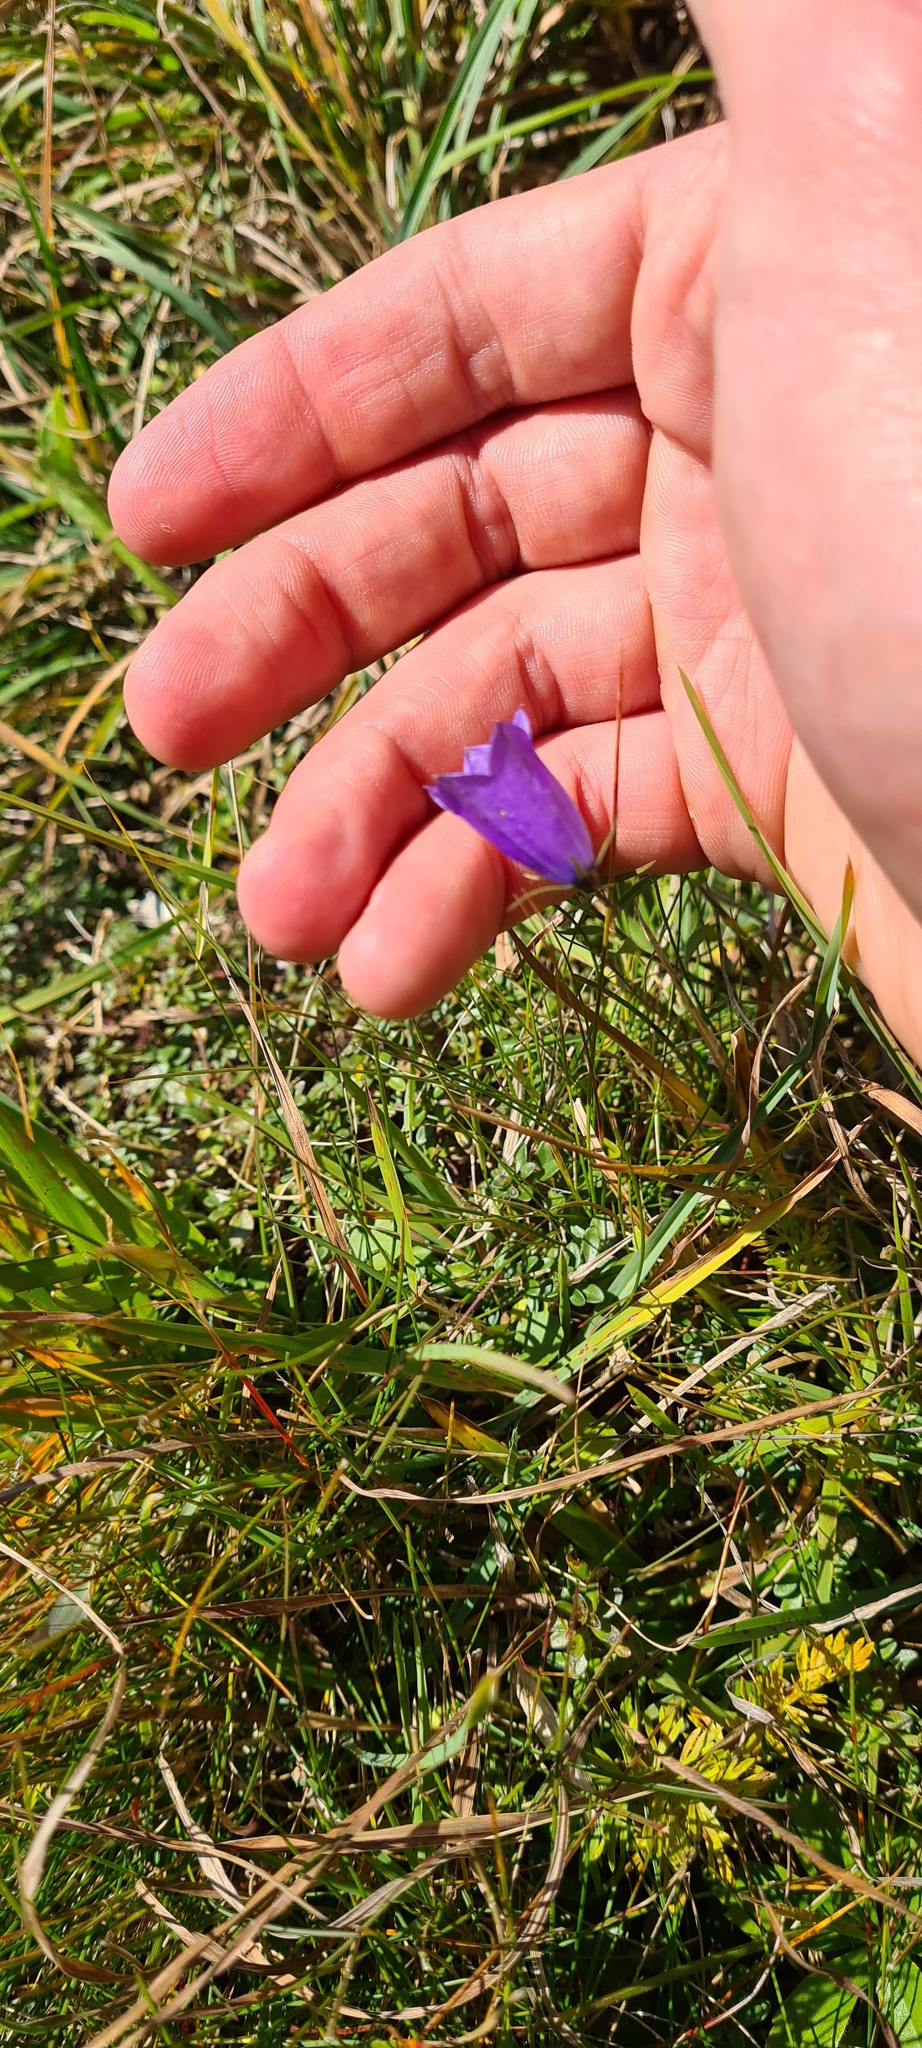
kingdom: Plantae
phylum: Tracheophyta
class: Magnoliopsida
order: Asterales
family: Campanulaceae
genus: Campanula
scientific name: Campanula scheuchzeri
